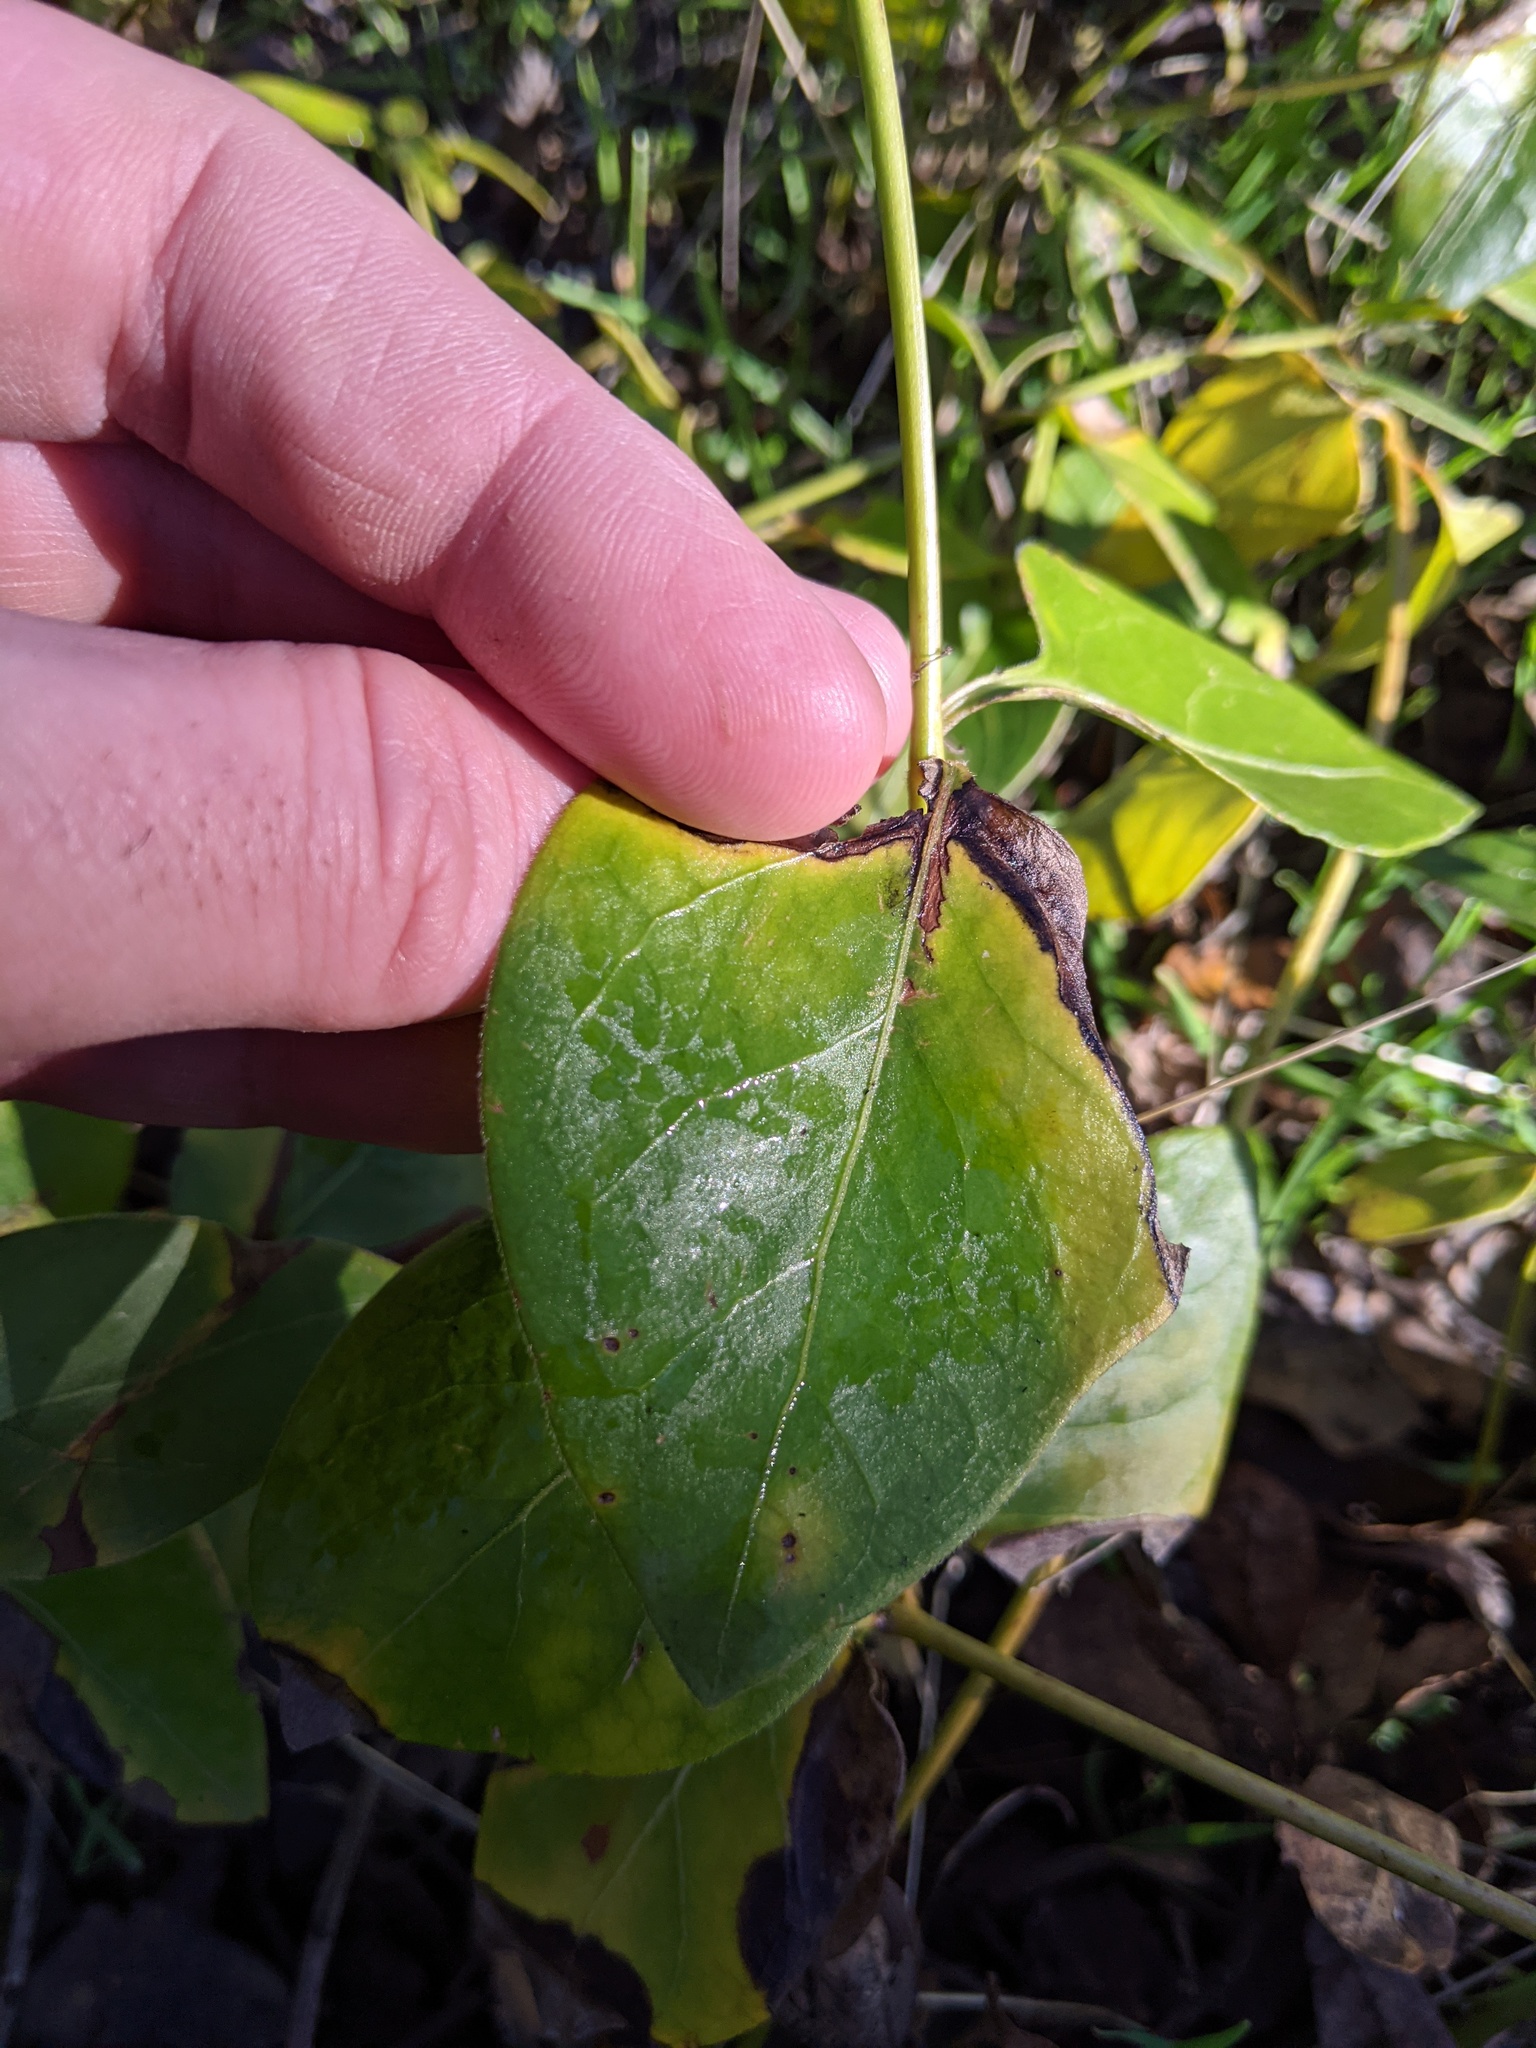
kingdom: Plantae
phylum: Tracheophyta
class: Magnoliopsida
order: Gentianales
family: Apocynaceae
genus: Vinca
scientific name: Vinca major
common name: Greater periwinkle
